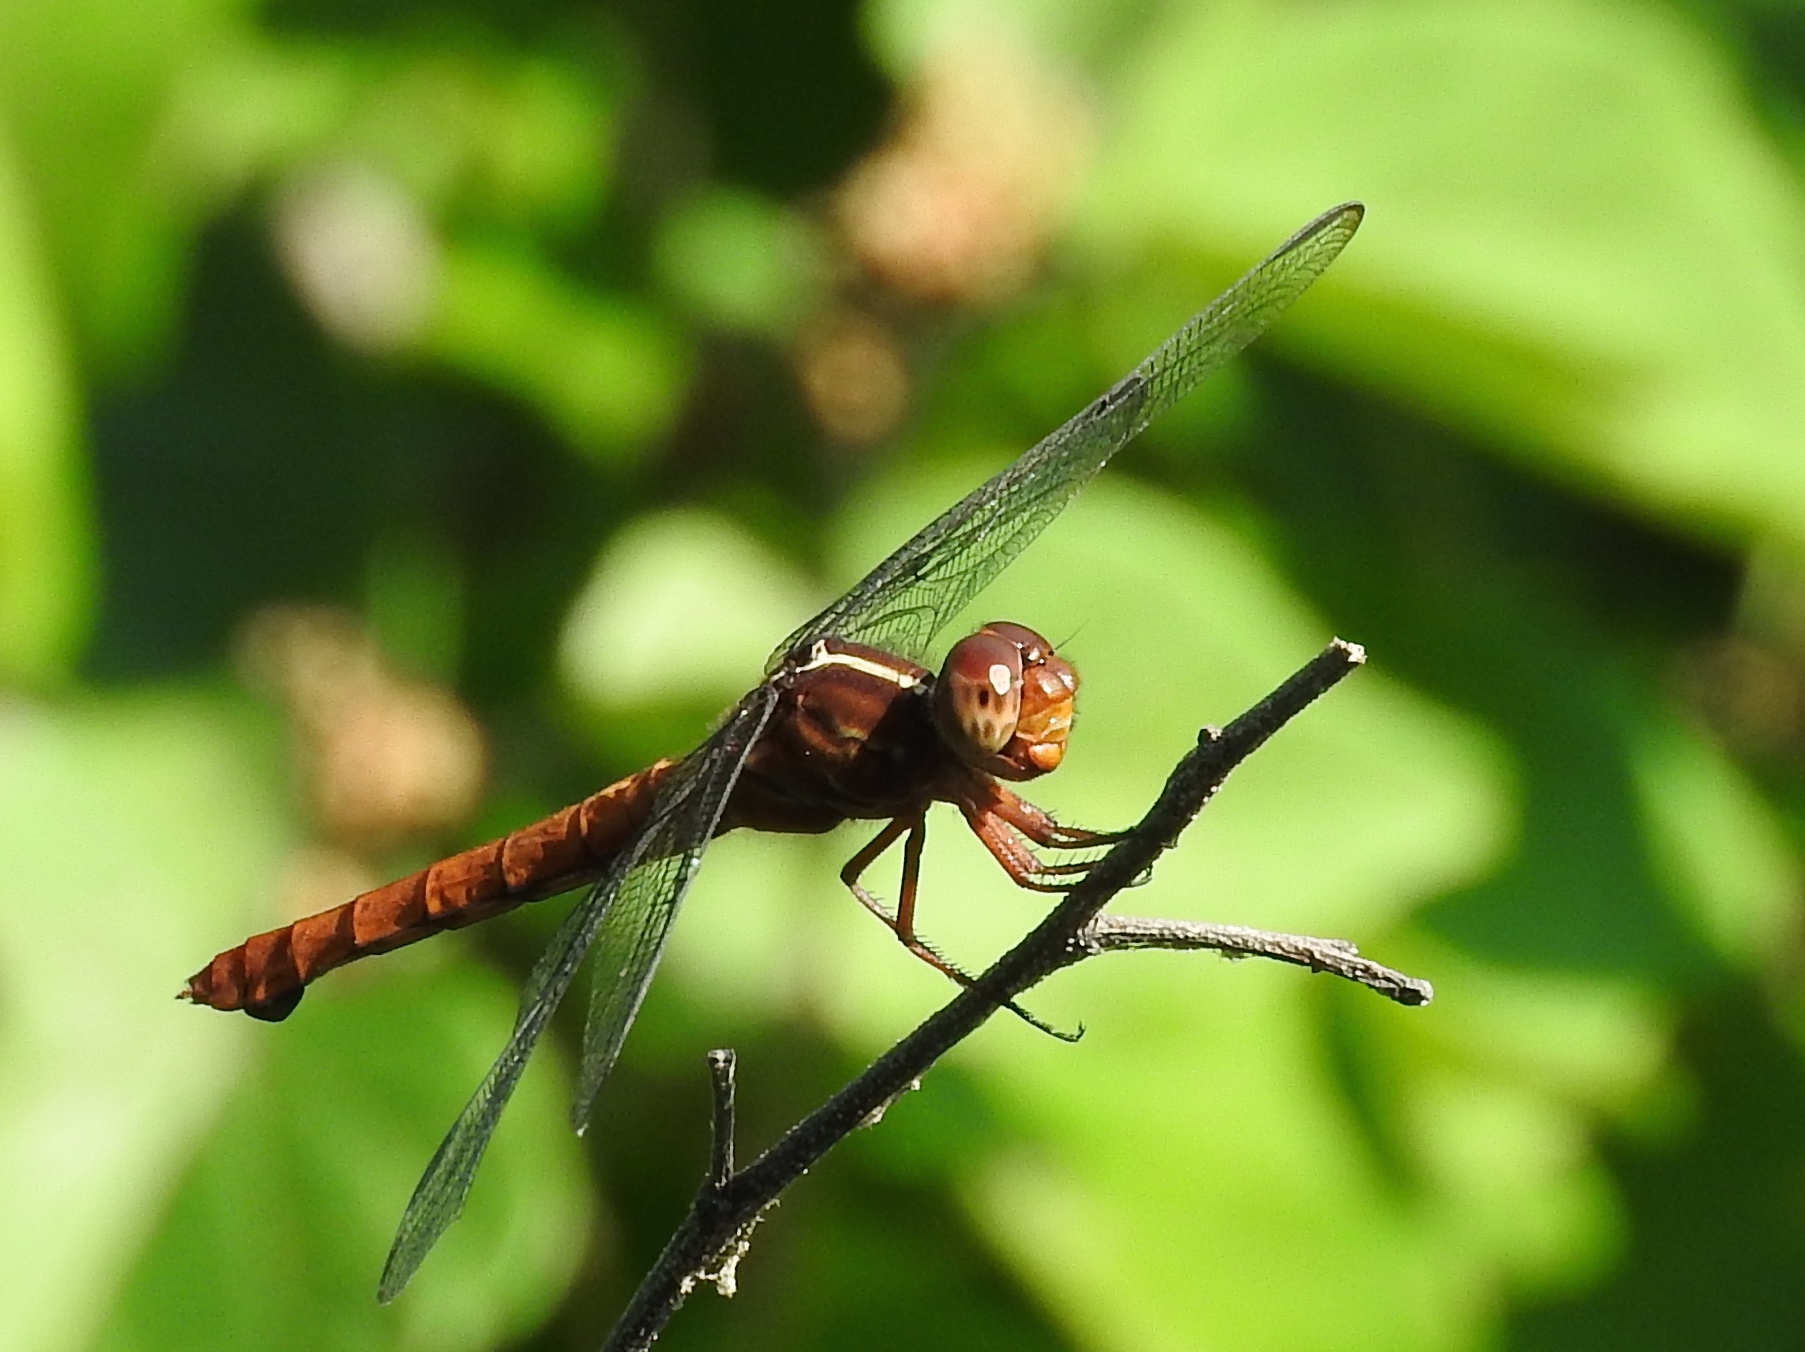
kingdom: Animalia
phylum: Arthropoda
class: Insecta
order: Odonata
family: Libellulidae
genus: Orthemis
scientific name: Orthemis discolor
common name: Carmine skimmer
